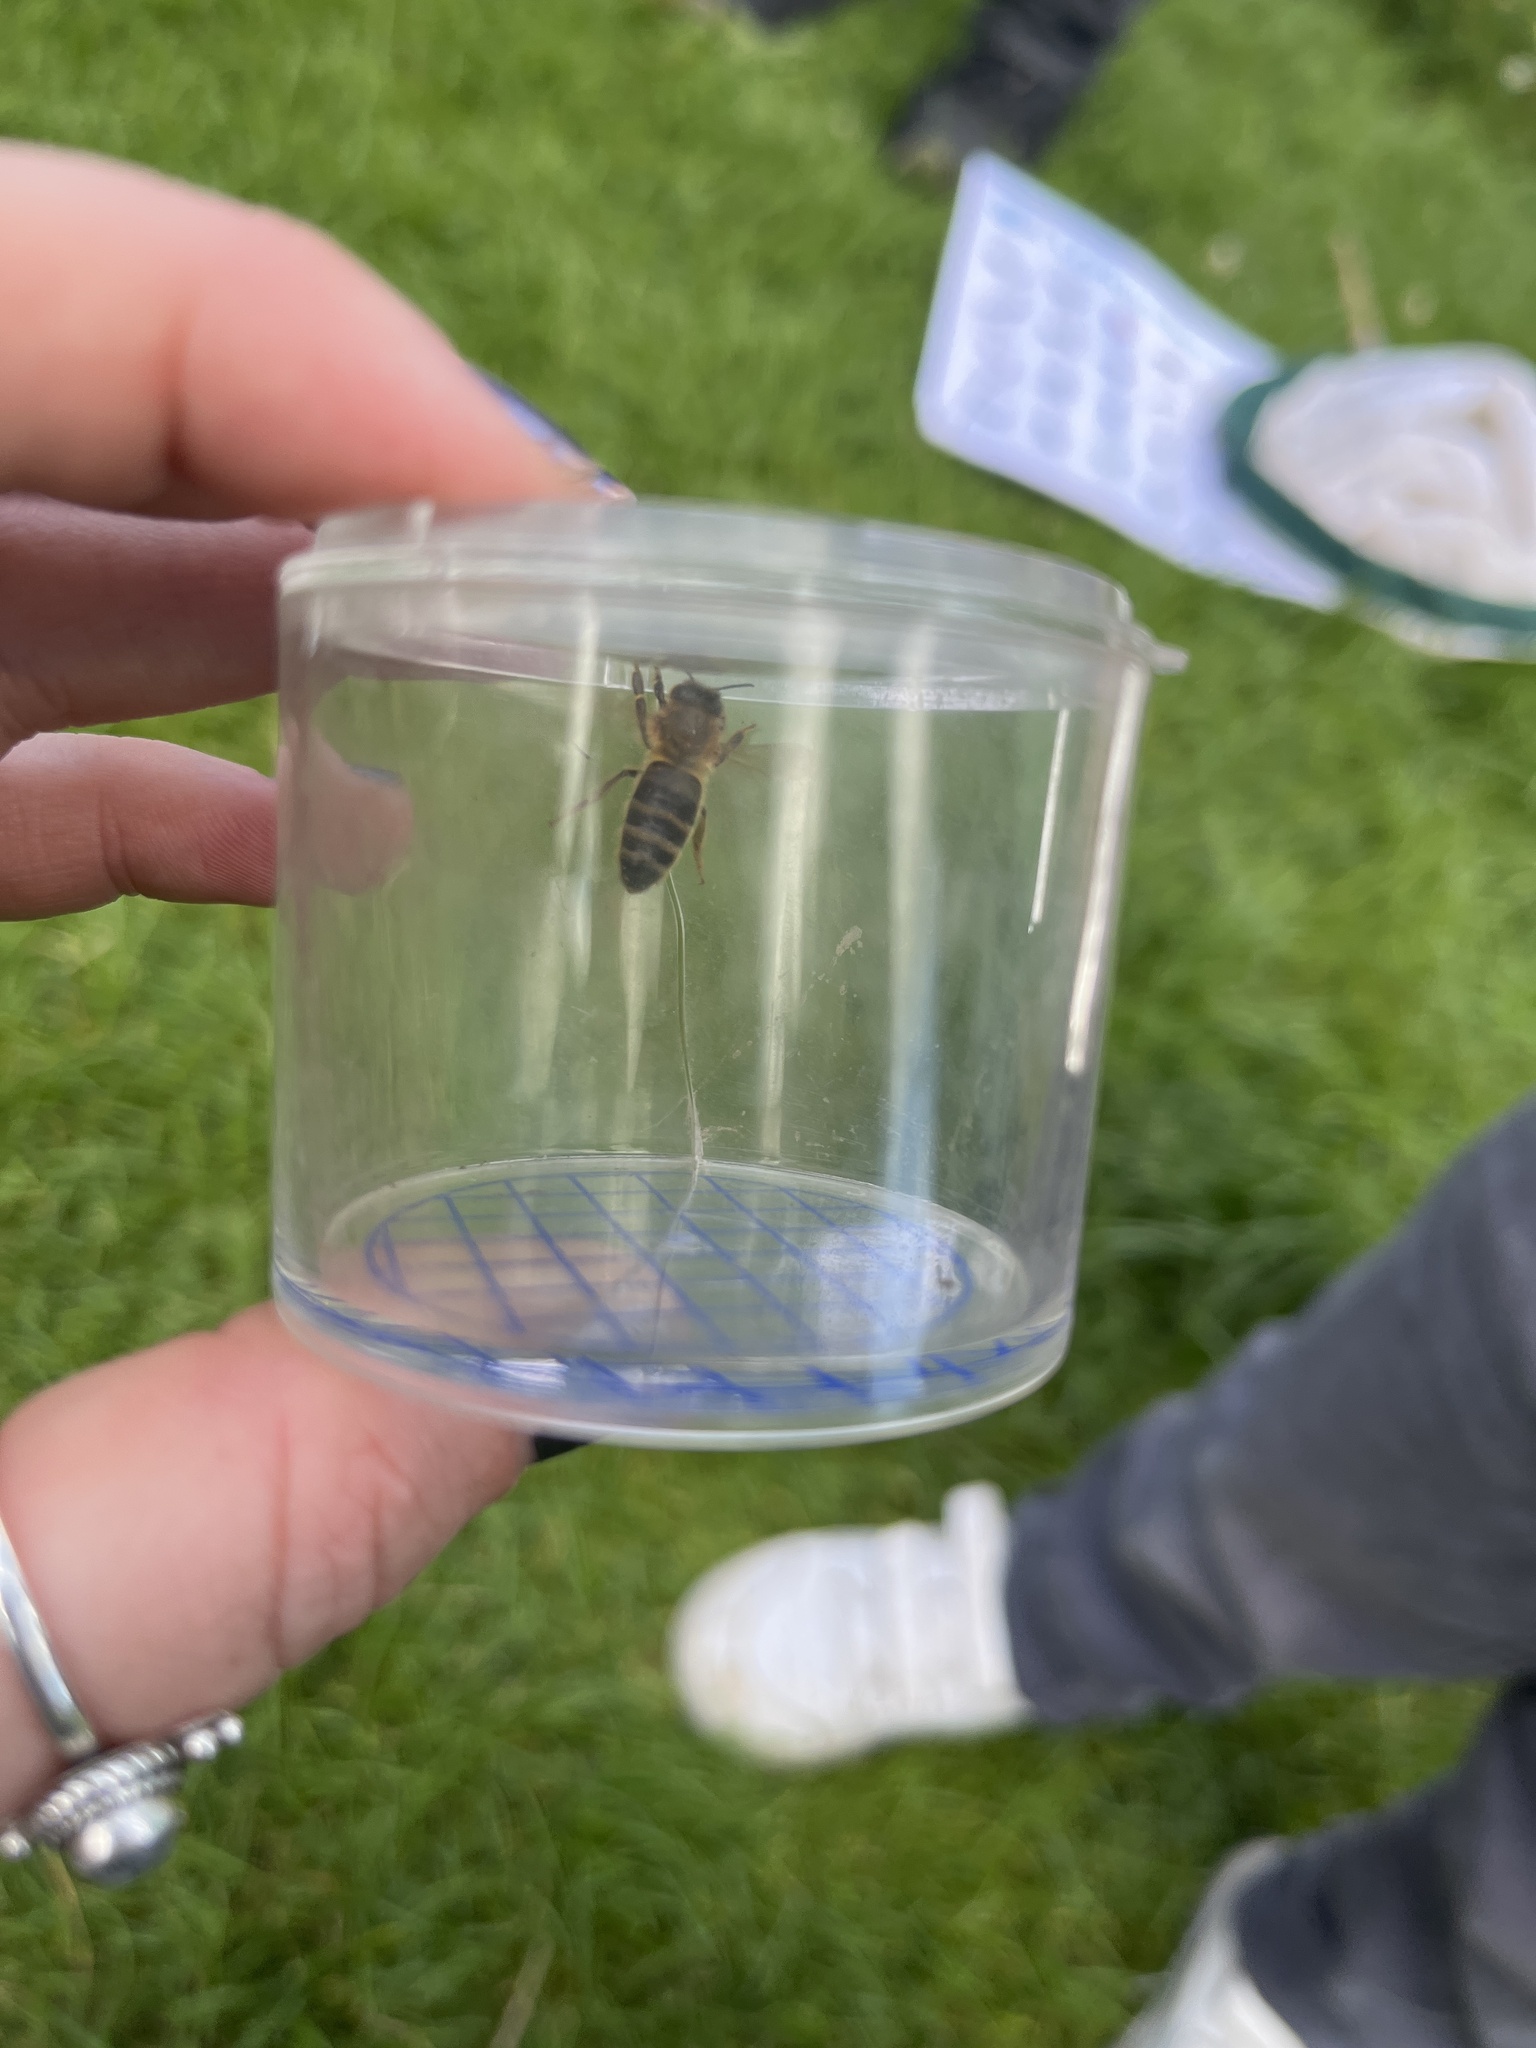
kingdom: Animalia
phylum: Arthropoda
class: Insecta
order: Hymenoptera
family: Apidae
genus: Apis
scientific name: Apis mellifera
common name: Honey bee
